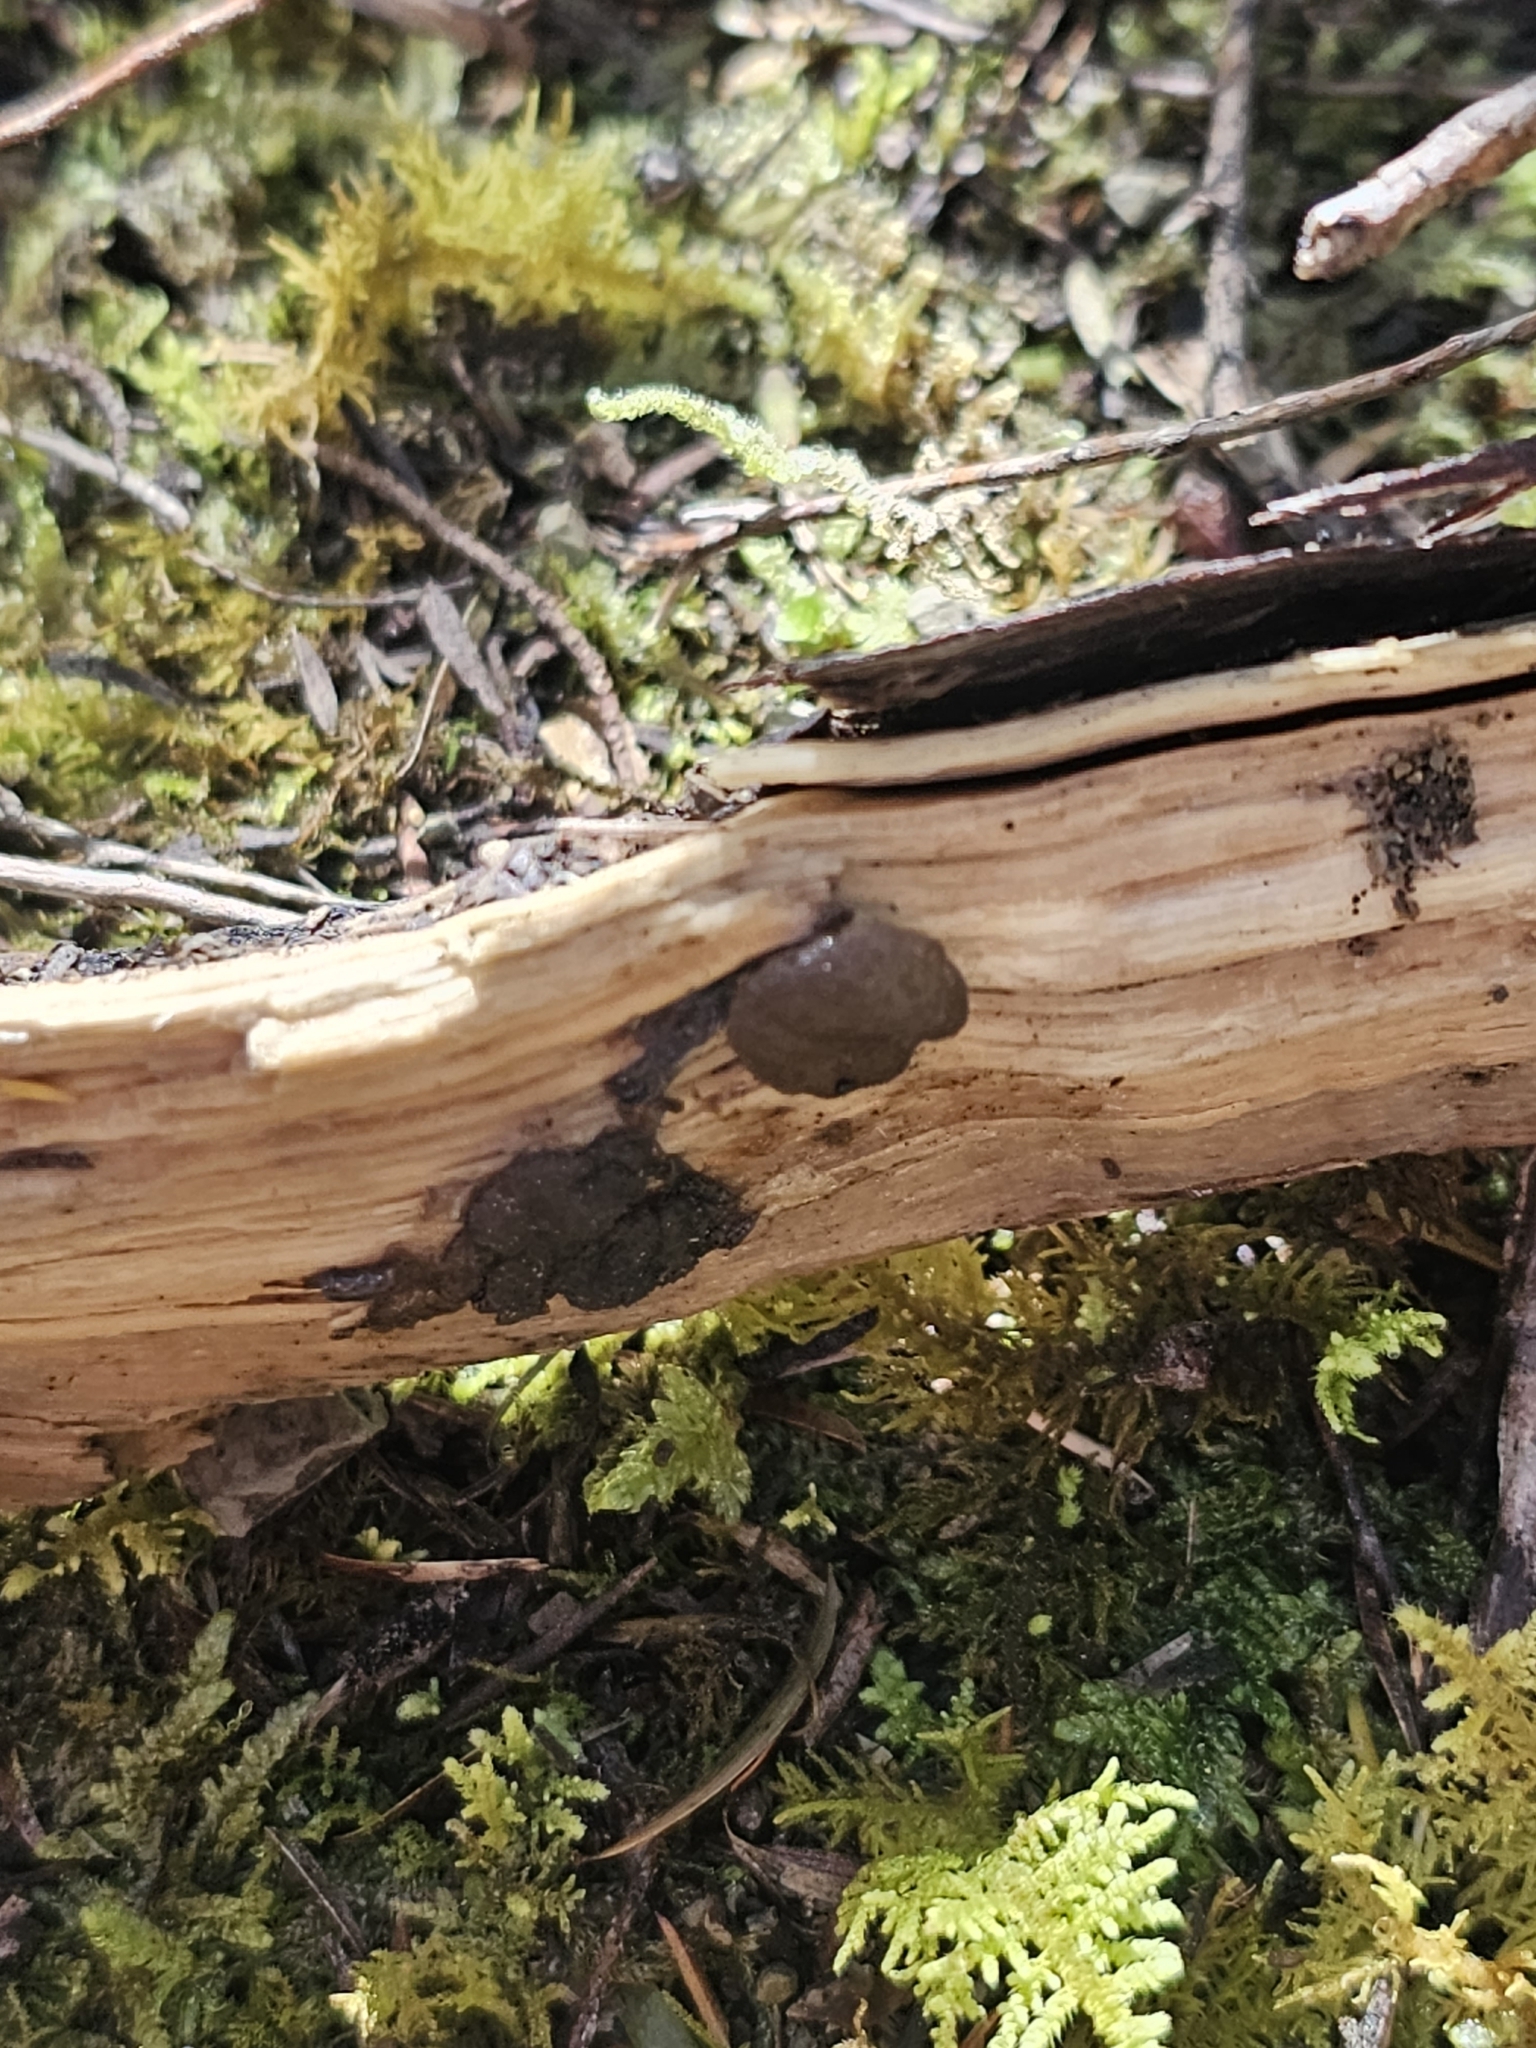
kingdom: Fungi
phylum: Basidiomycota
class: Agaricomycetes
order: Auriculariales
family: Auriculariaceae
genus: Tremellochaete
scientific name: Tremellochaete
